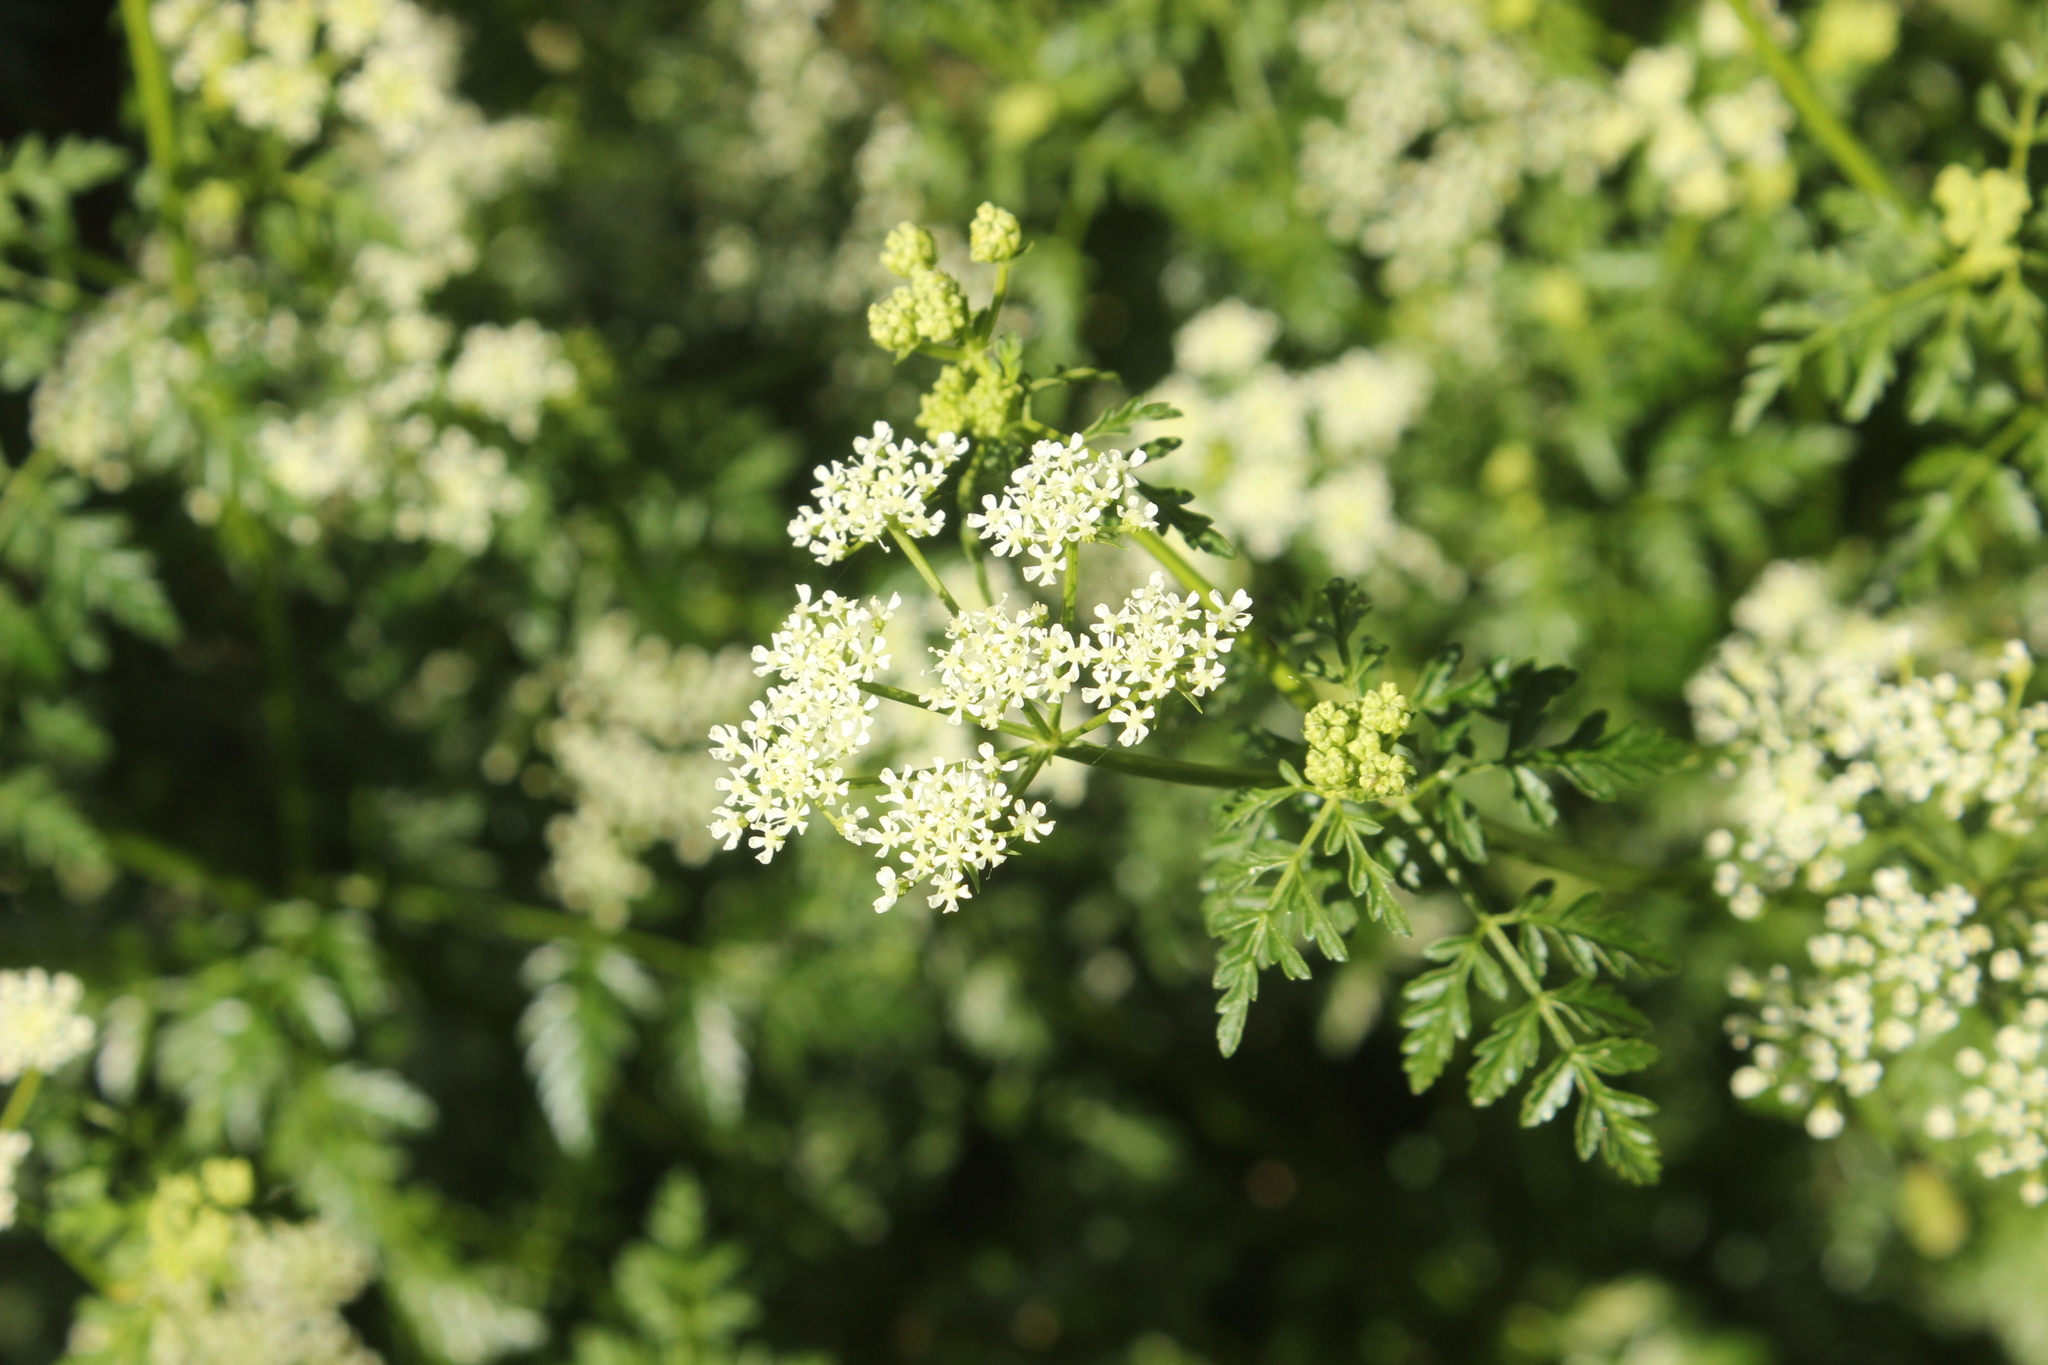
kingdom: Plantae
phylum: Tracheophyta
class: Magnoliopsida
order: Apiales
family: Apiaceae
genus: Conium
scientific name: Conium maculatum
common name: Hemlock
